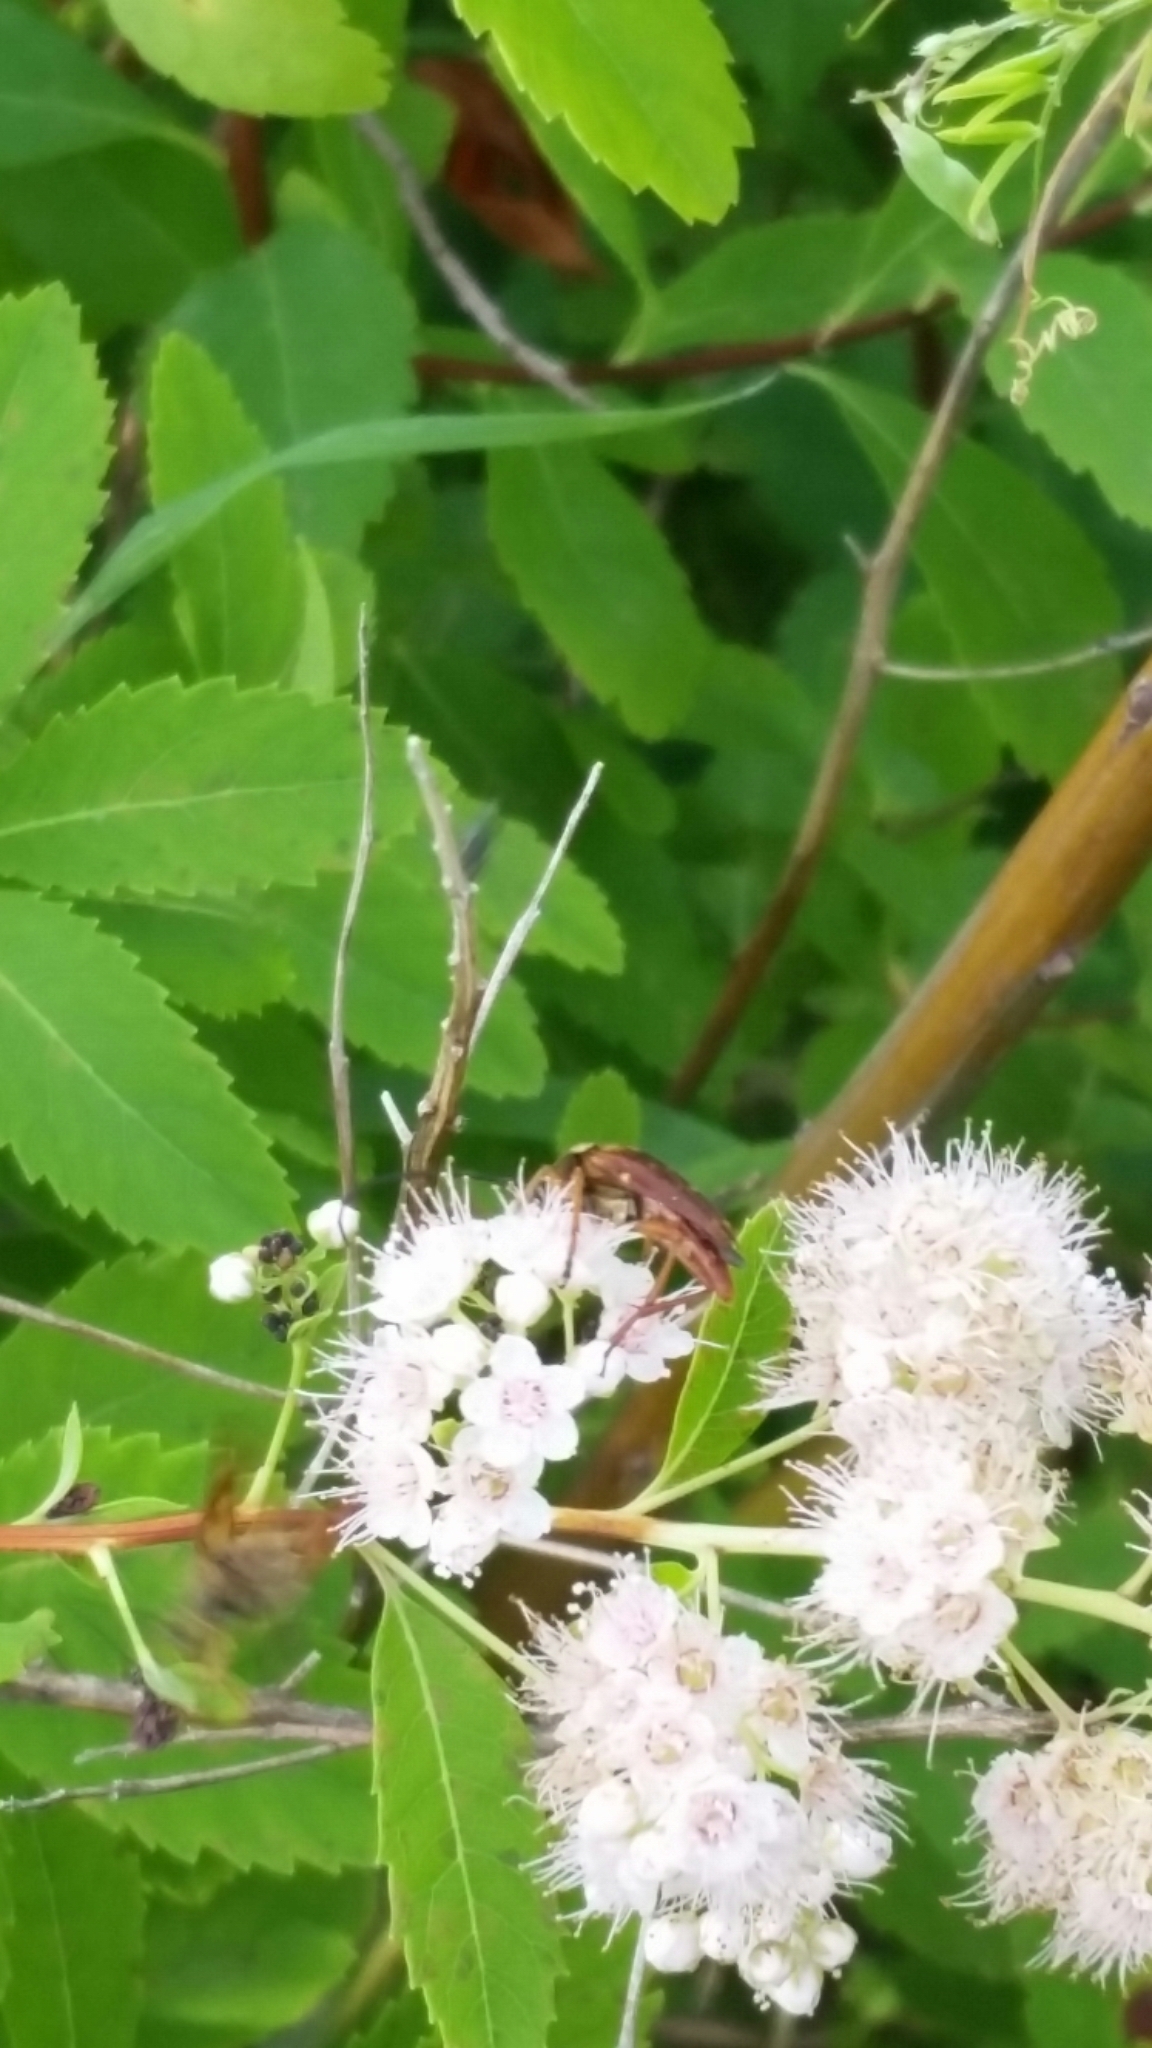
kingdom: Animalia
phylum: Arthropoda
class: Insecta
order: Coleoptera
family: Cerambycidae
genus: Typocerus
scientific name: Typocerus velutinus
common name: Banded longhorn beetle
